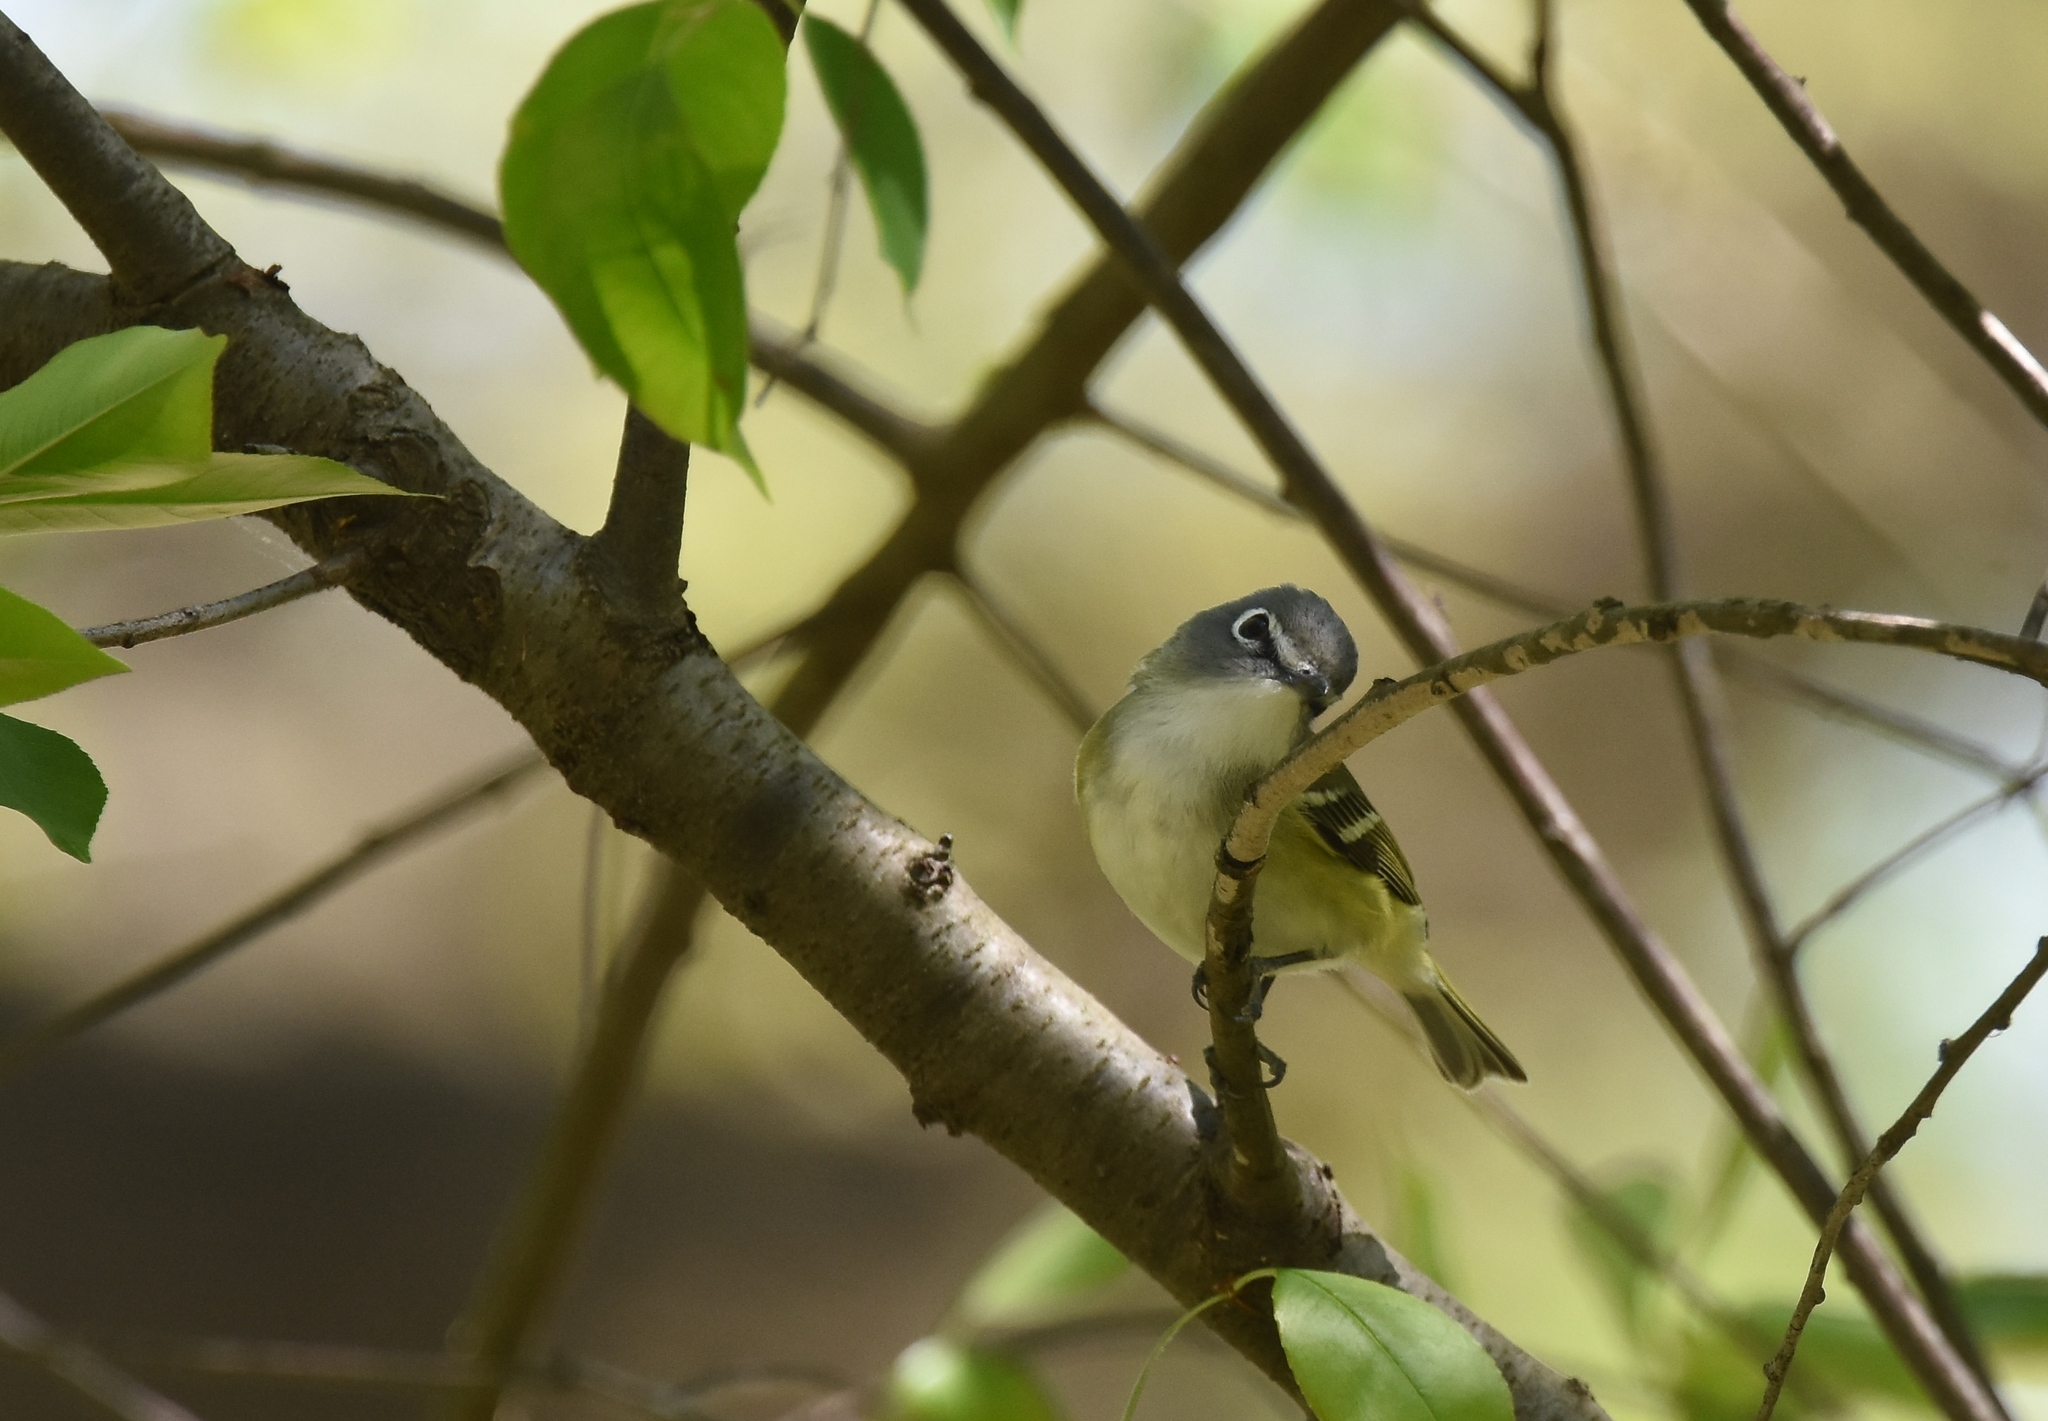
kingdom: Animalia
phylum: Chordata
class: Aves
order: Passeriformes
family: Vireonidae
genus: Vireo
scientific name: Vireo solitarius
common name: Blue-headed vireo
